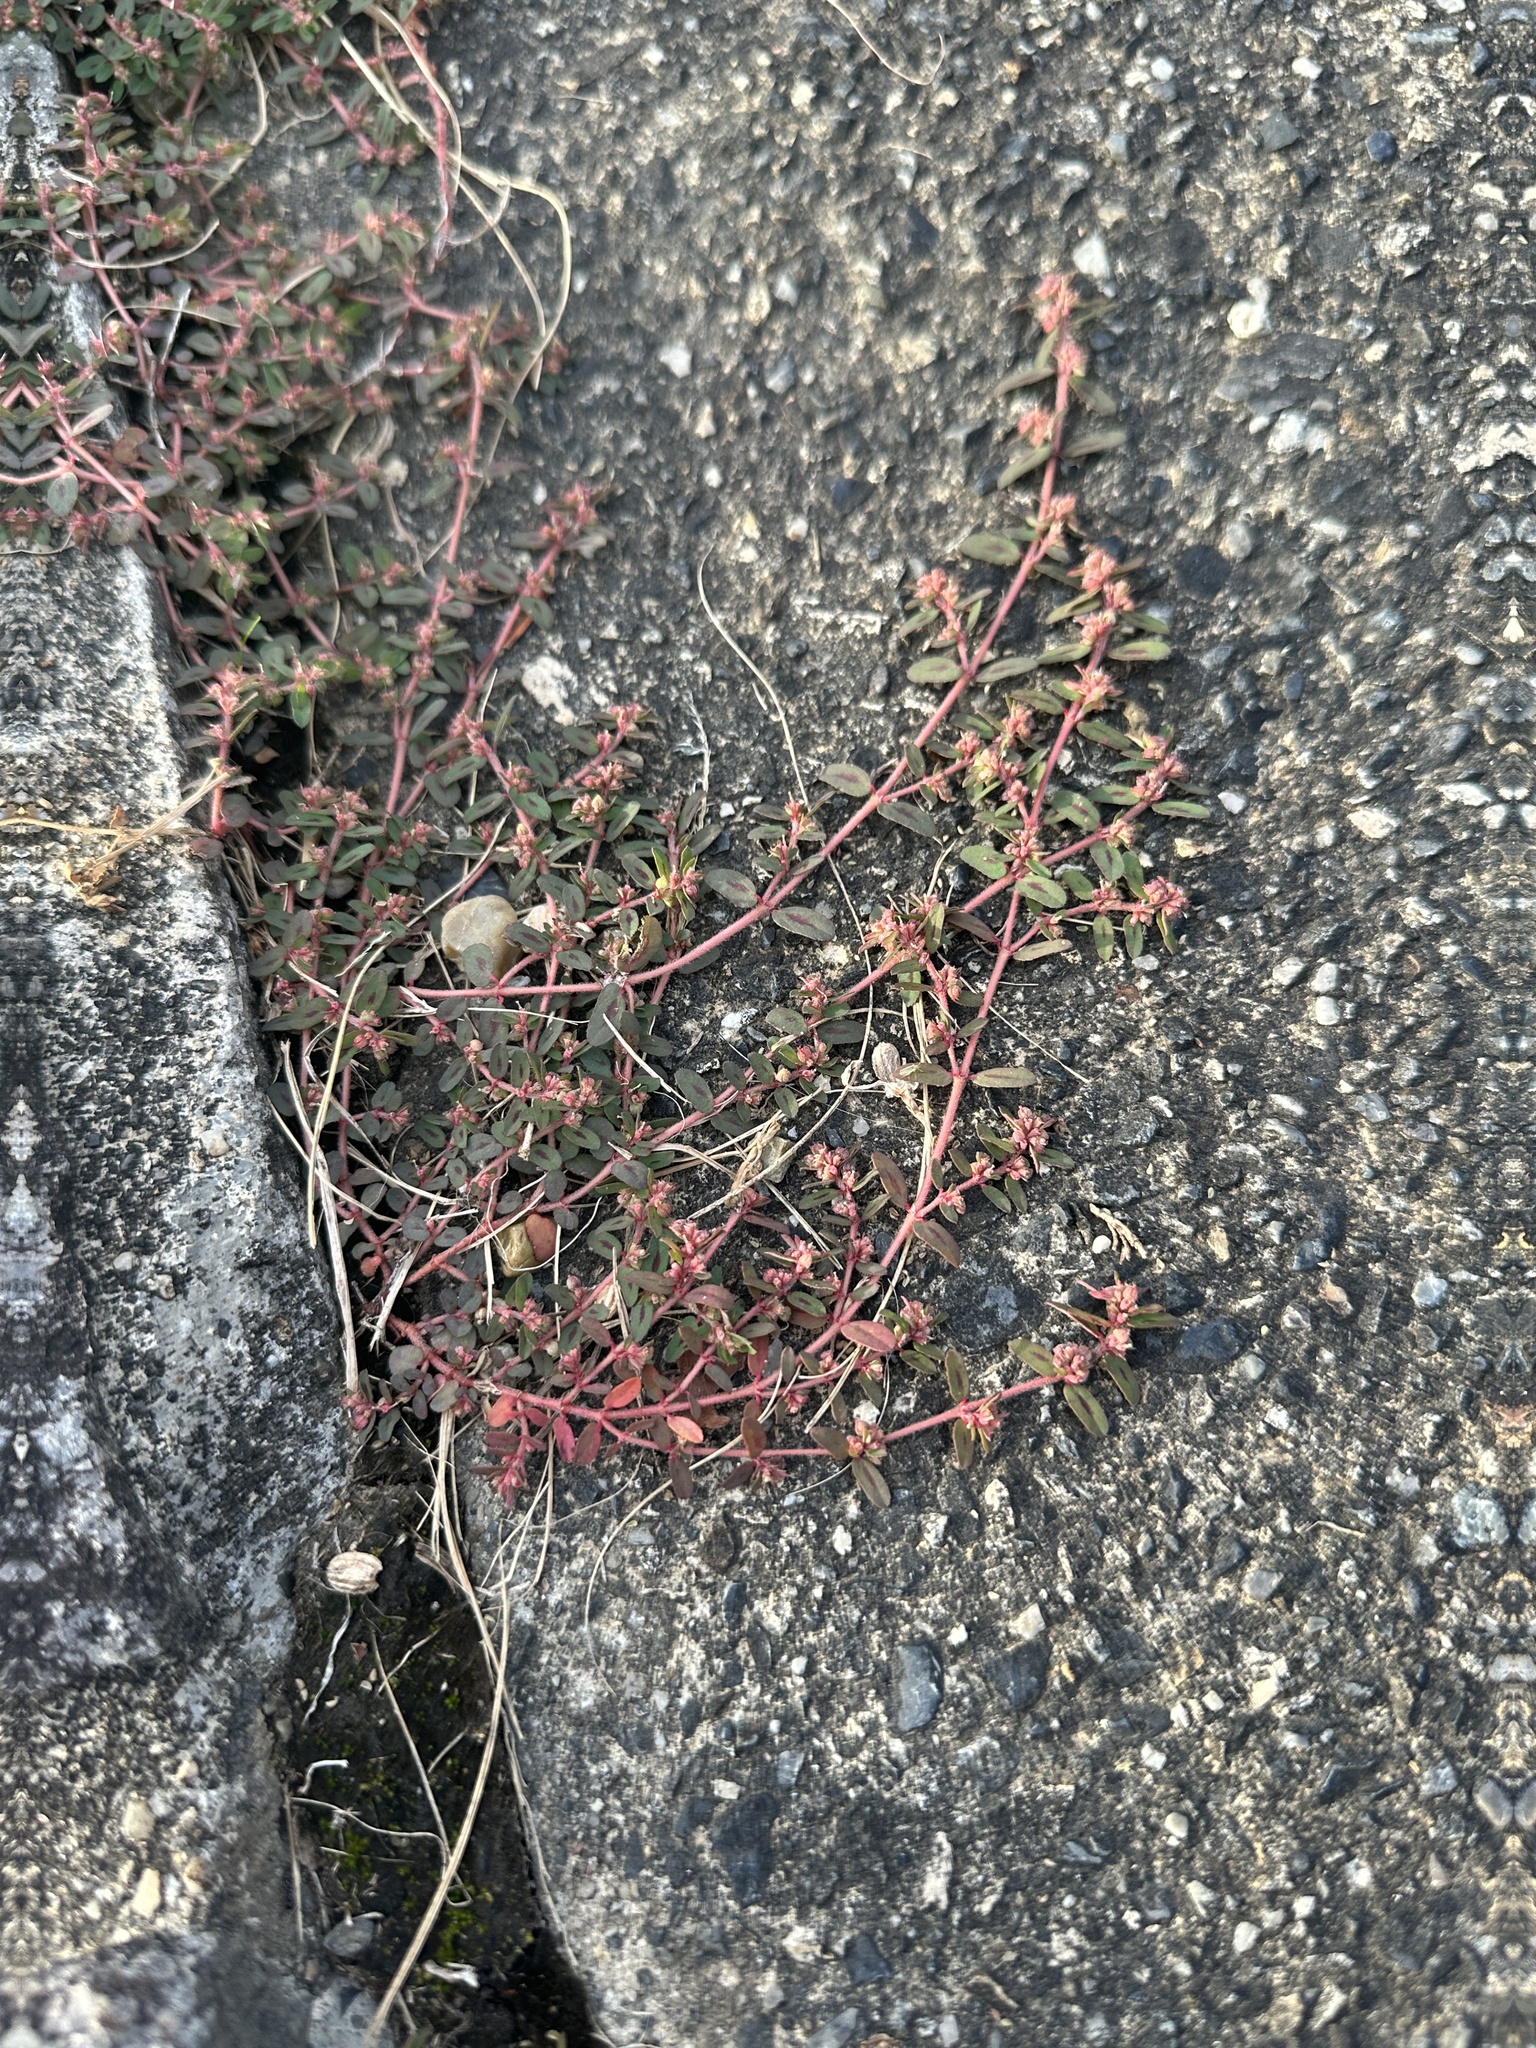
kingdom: Plantae
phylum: Tracheophyta
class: Magnoliopsida
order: Malpighiales
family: Euphorbiaceae
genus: Euphorbia
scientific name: Euphorbia maculata
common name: Spotted spurge
